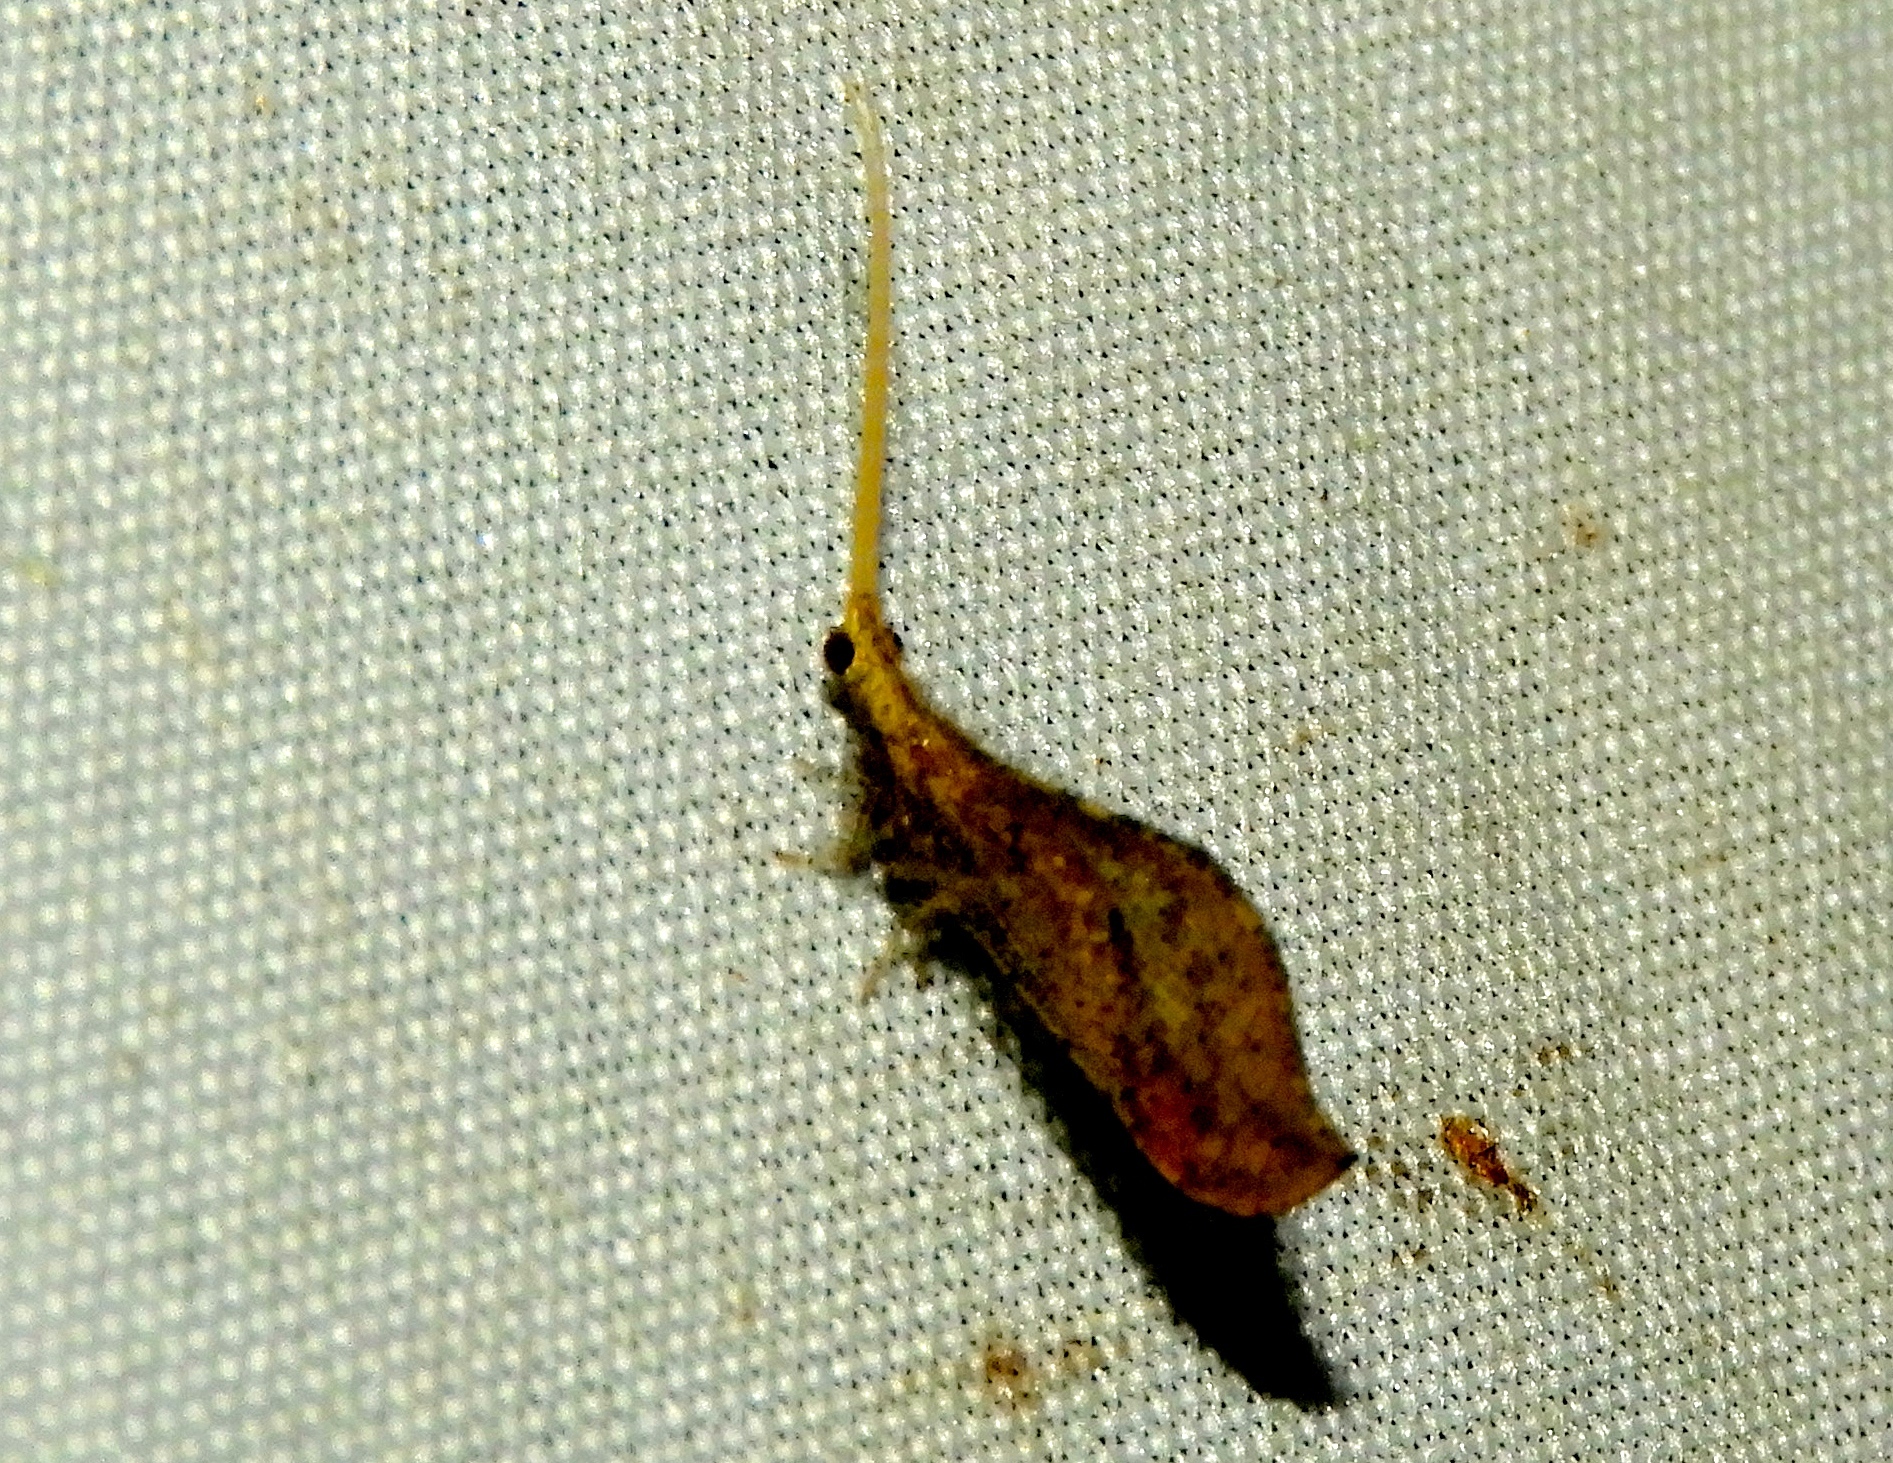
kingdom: Animalia
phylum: Arthropoda
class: Insecta
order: Neuroptera
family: Berothidae
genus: Lomamyia
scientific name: Lomamyia
